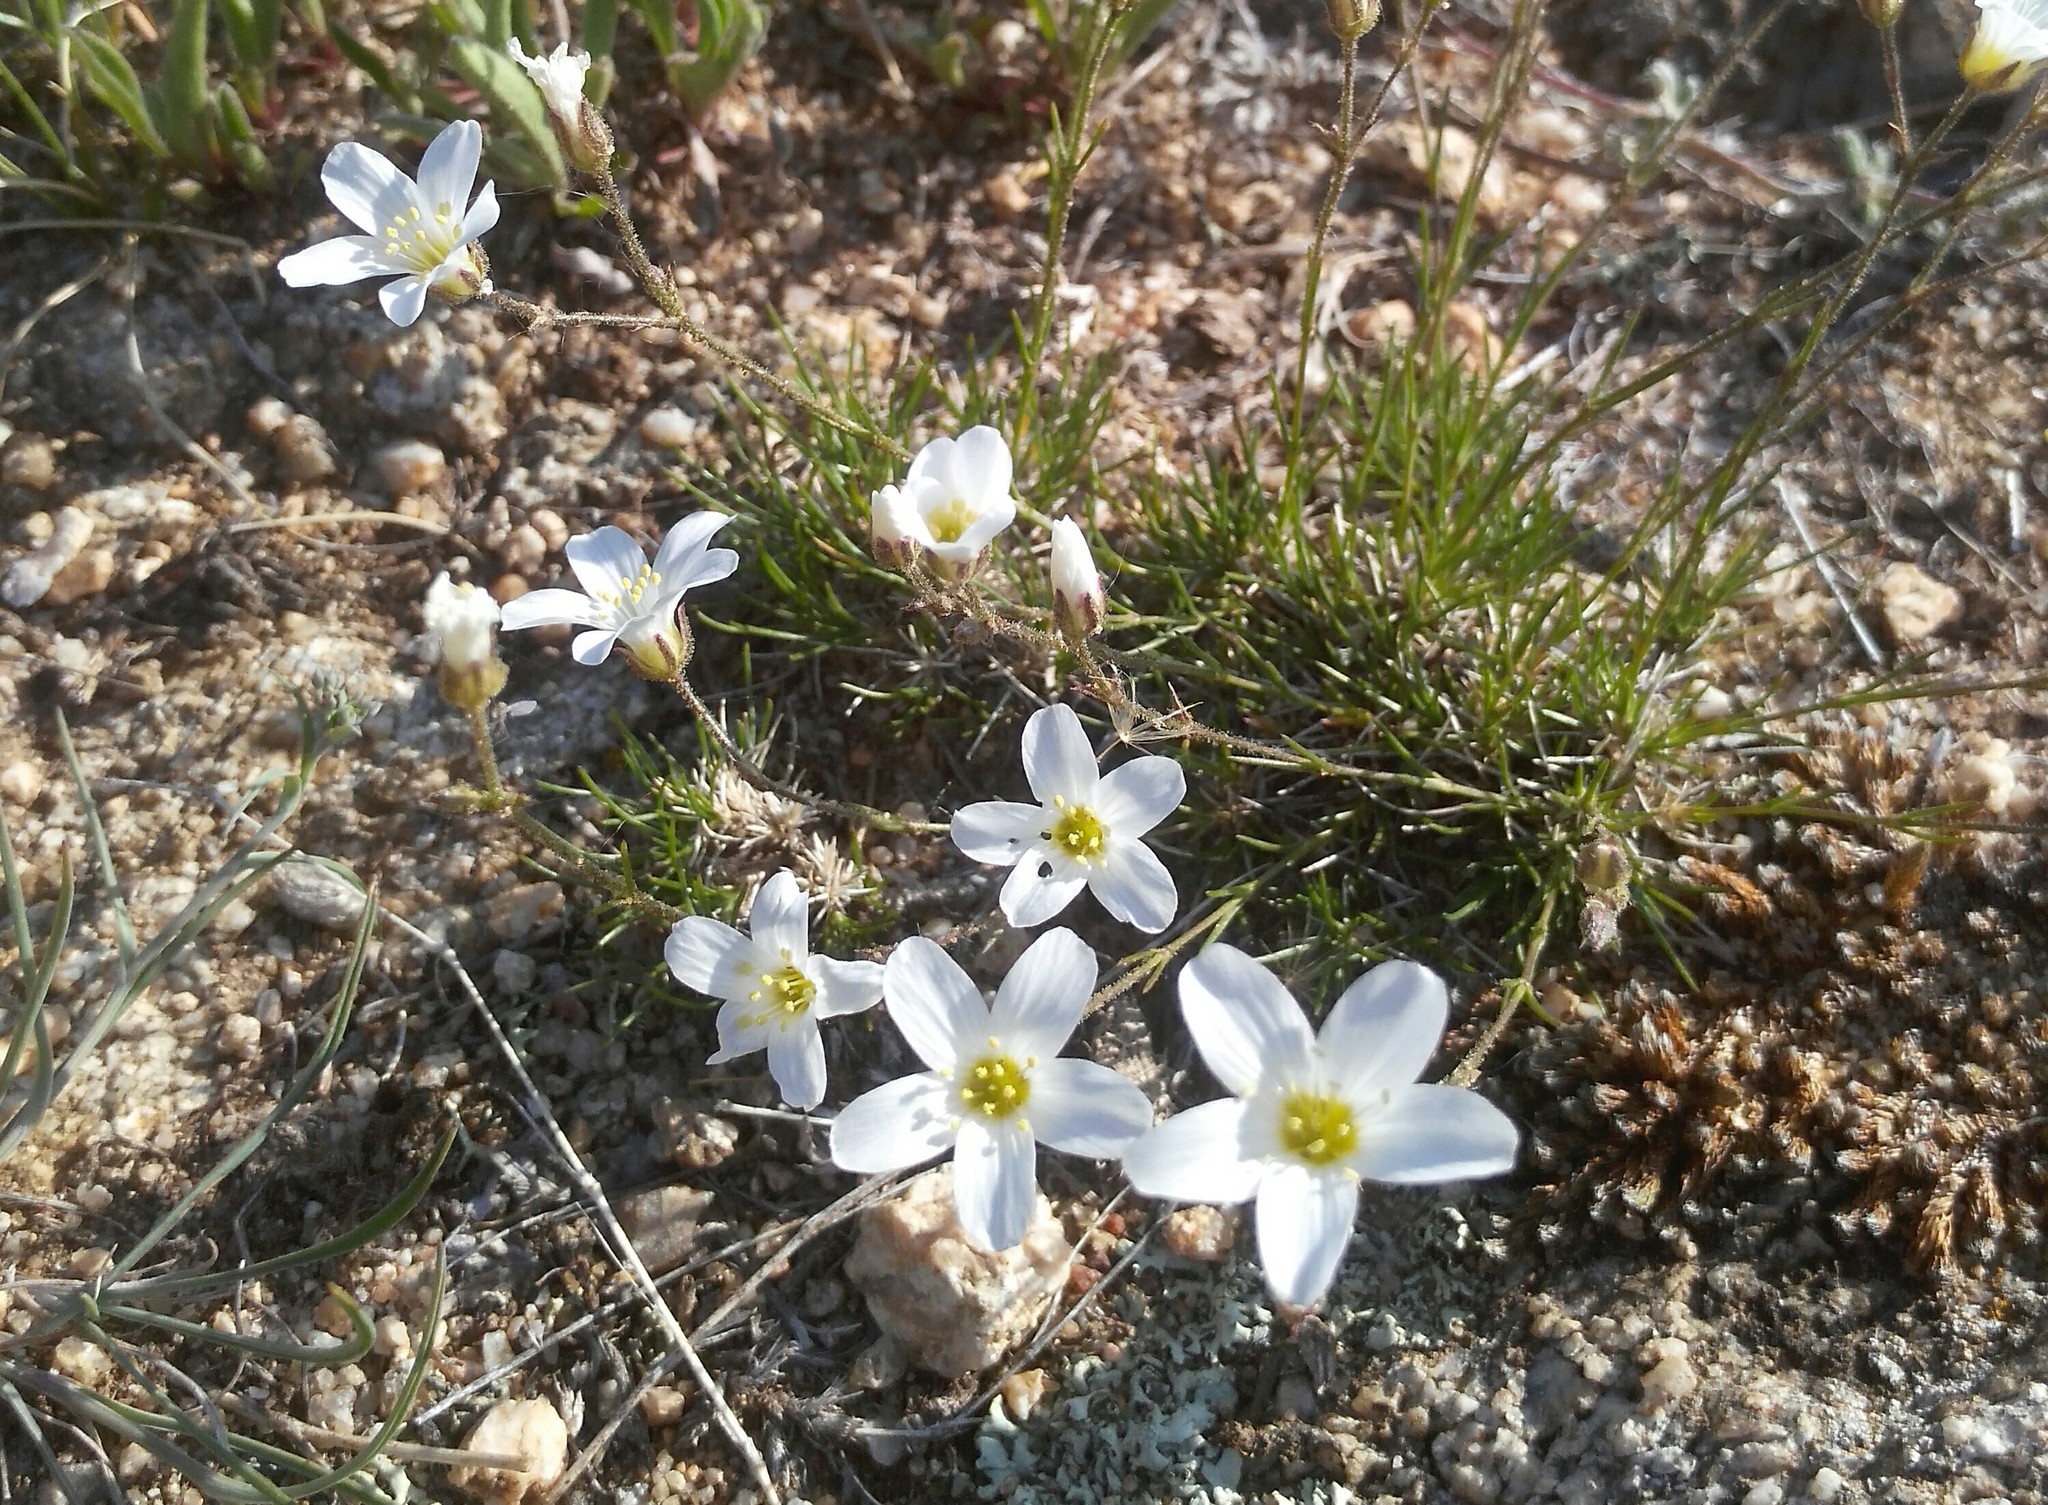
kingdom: Plantae
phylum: Tracheophyta
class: Magnoliopsida
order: Caryophyllales
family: Caryophyllaceae
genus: Eremogone
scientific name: Eremogone meyeri
